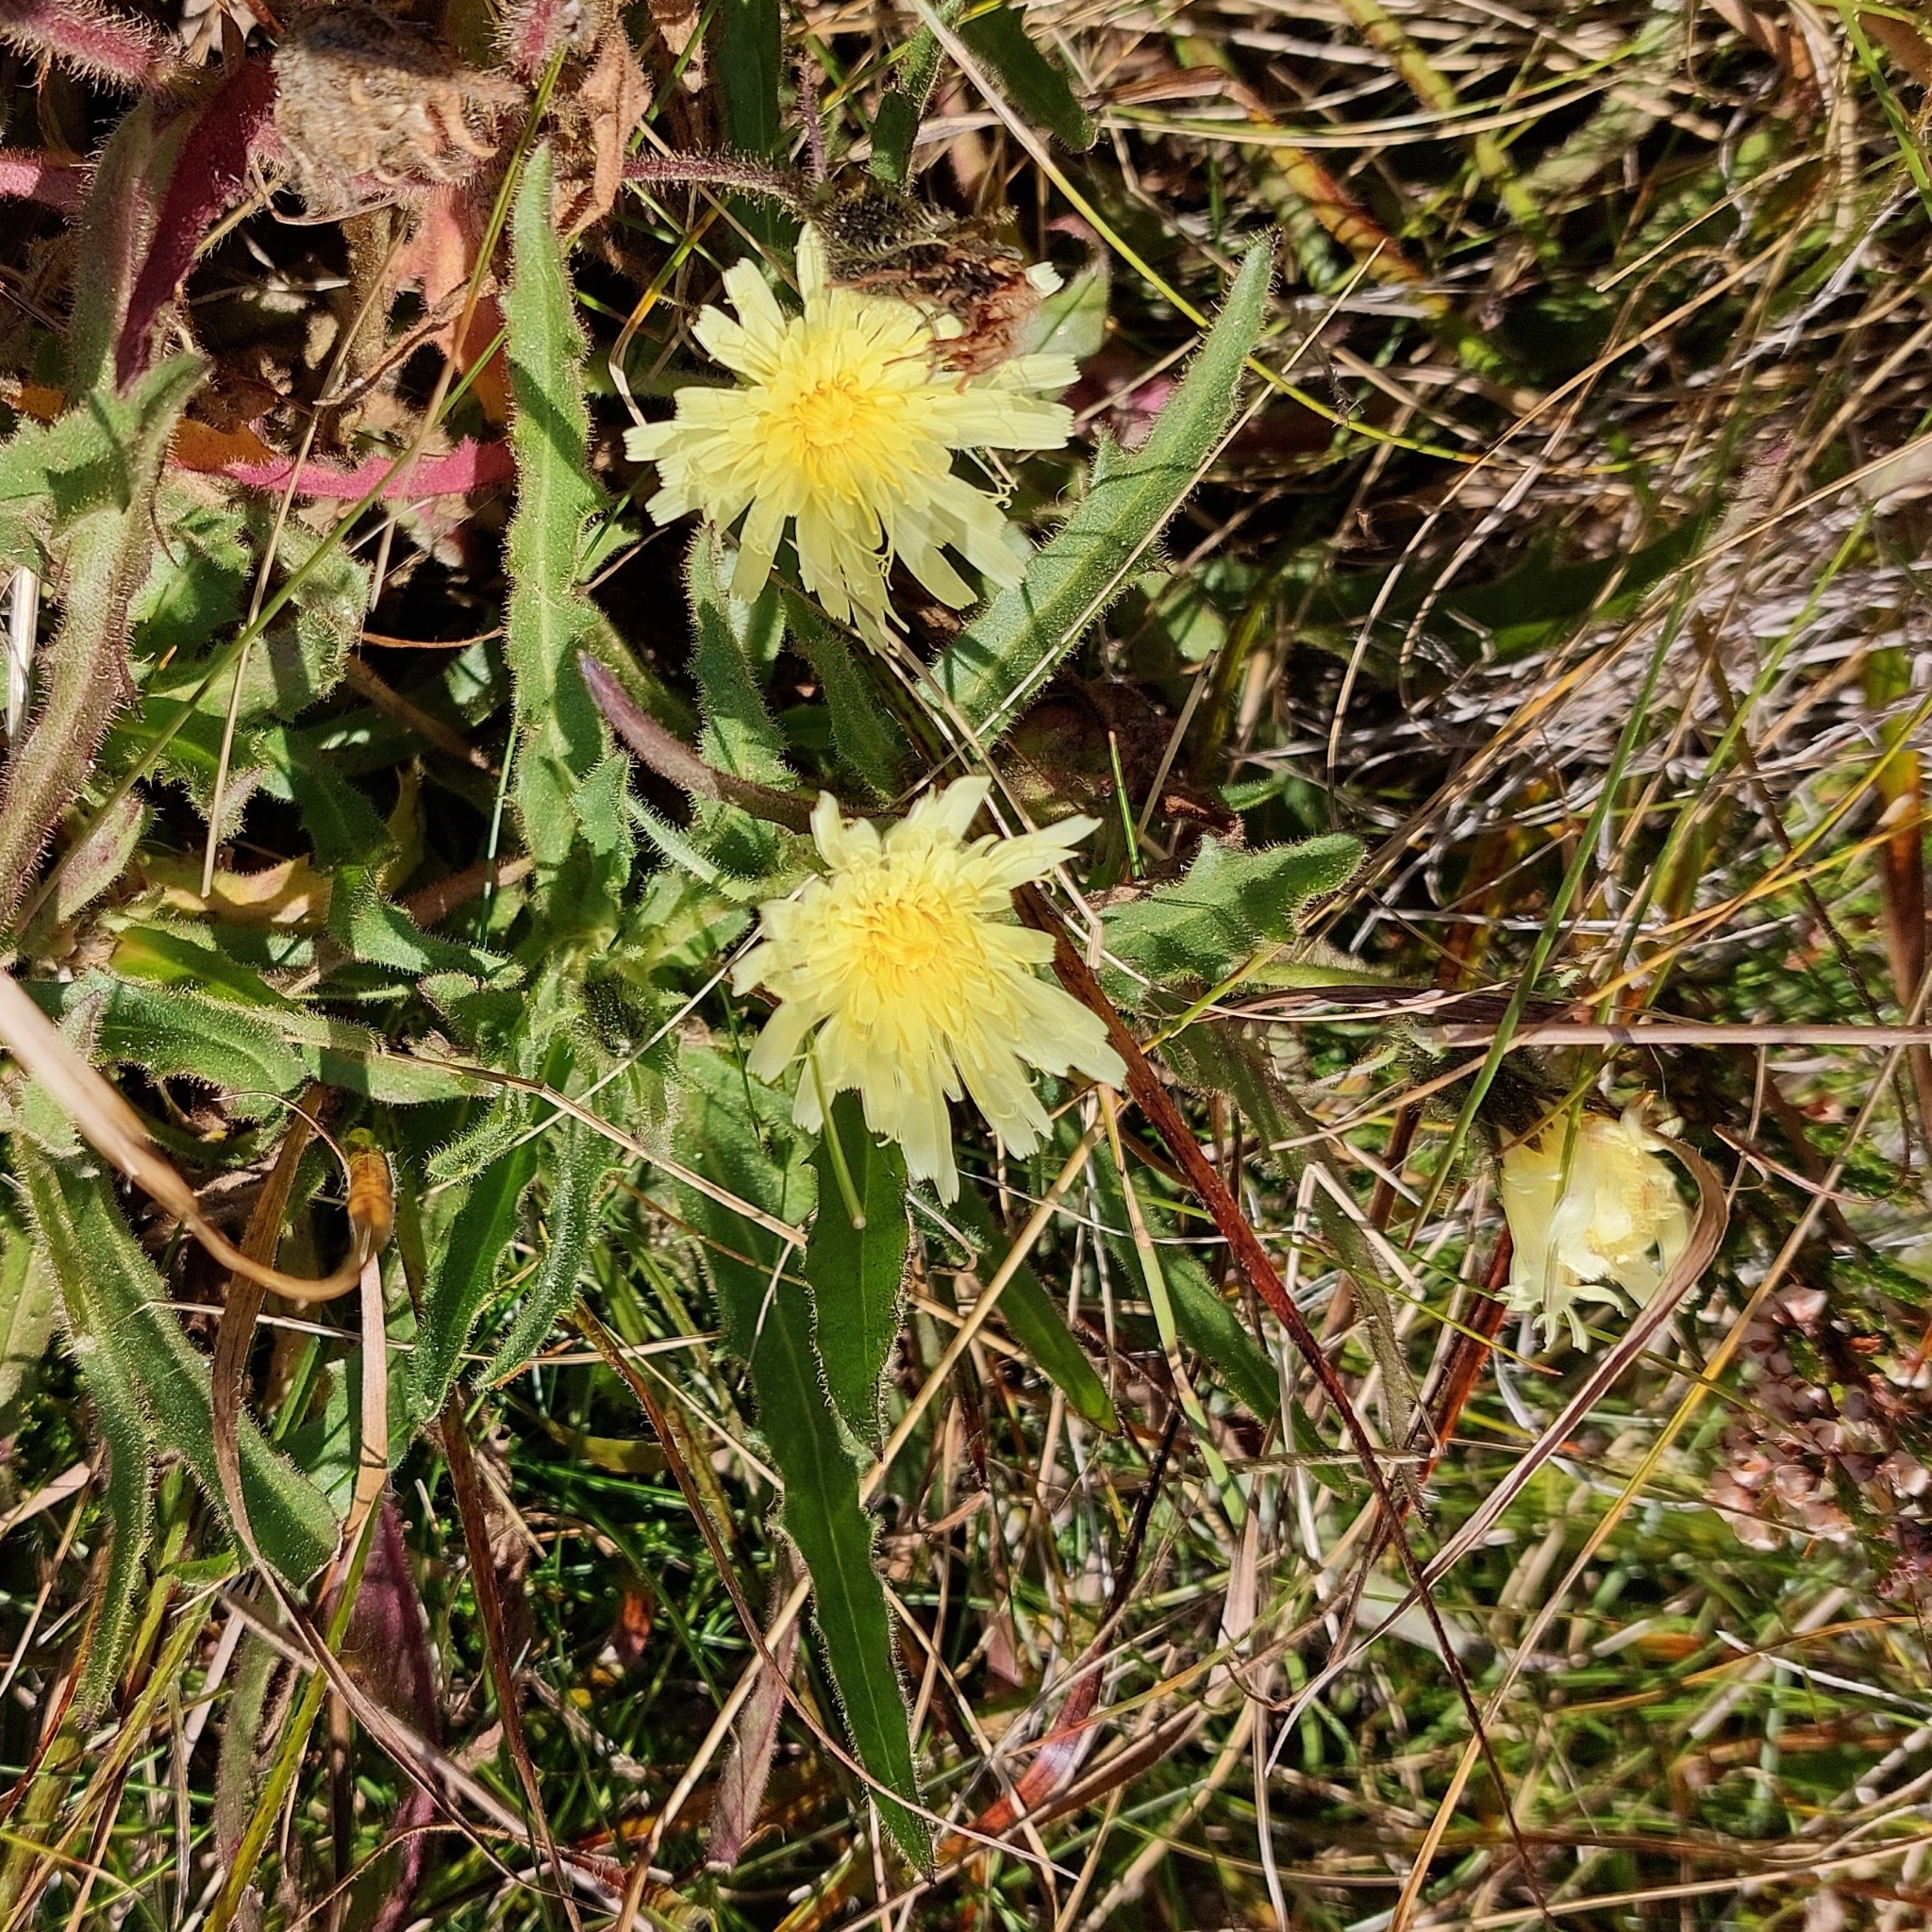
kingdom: Plantae
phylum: Tracheophyta
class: Magnoliopsida
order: Asterales
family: Asteraceae
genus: Schlagintweitia
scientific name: Schlagintweitia intybacea
